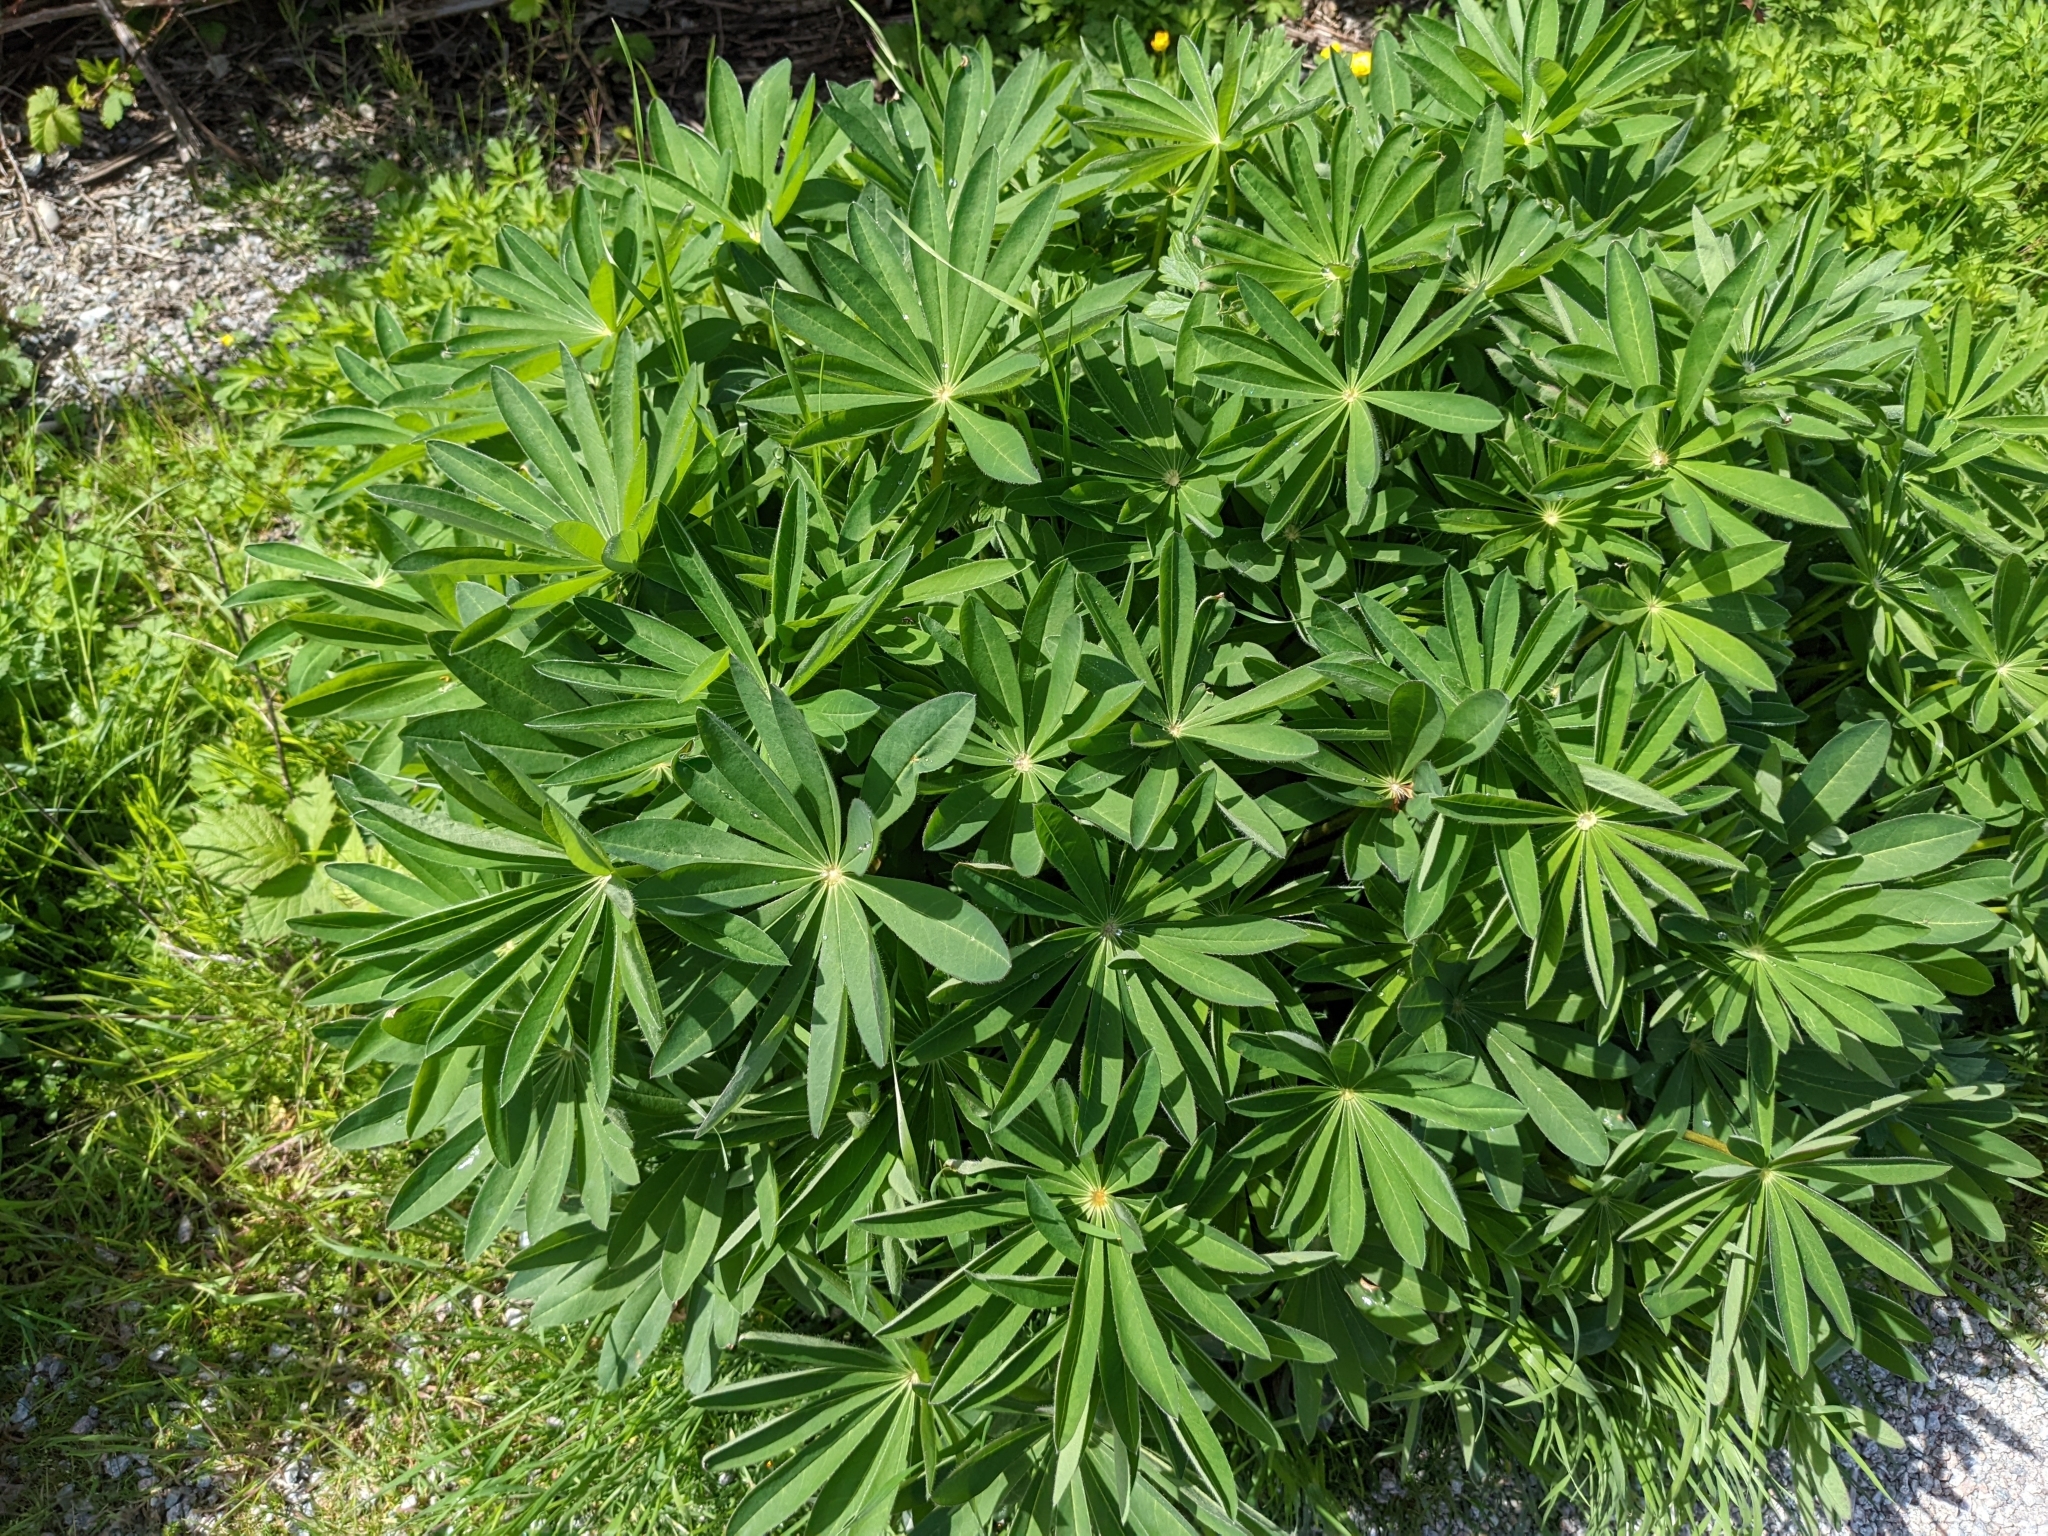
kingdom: Plantae
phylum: Tracheophyta
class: Magnoliopsida
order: Fabales
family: Fabaceae
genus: Lupinus
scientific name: Lupinus polyphyllus
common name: Garden lupin
